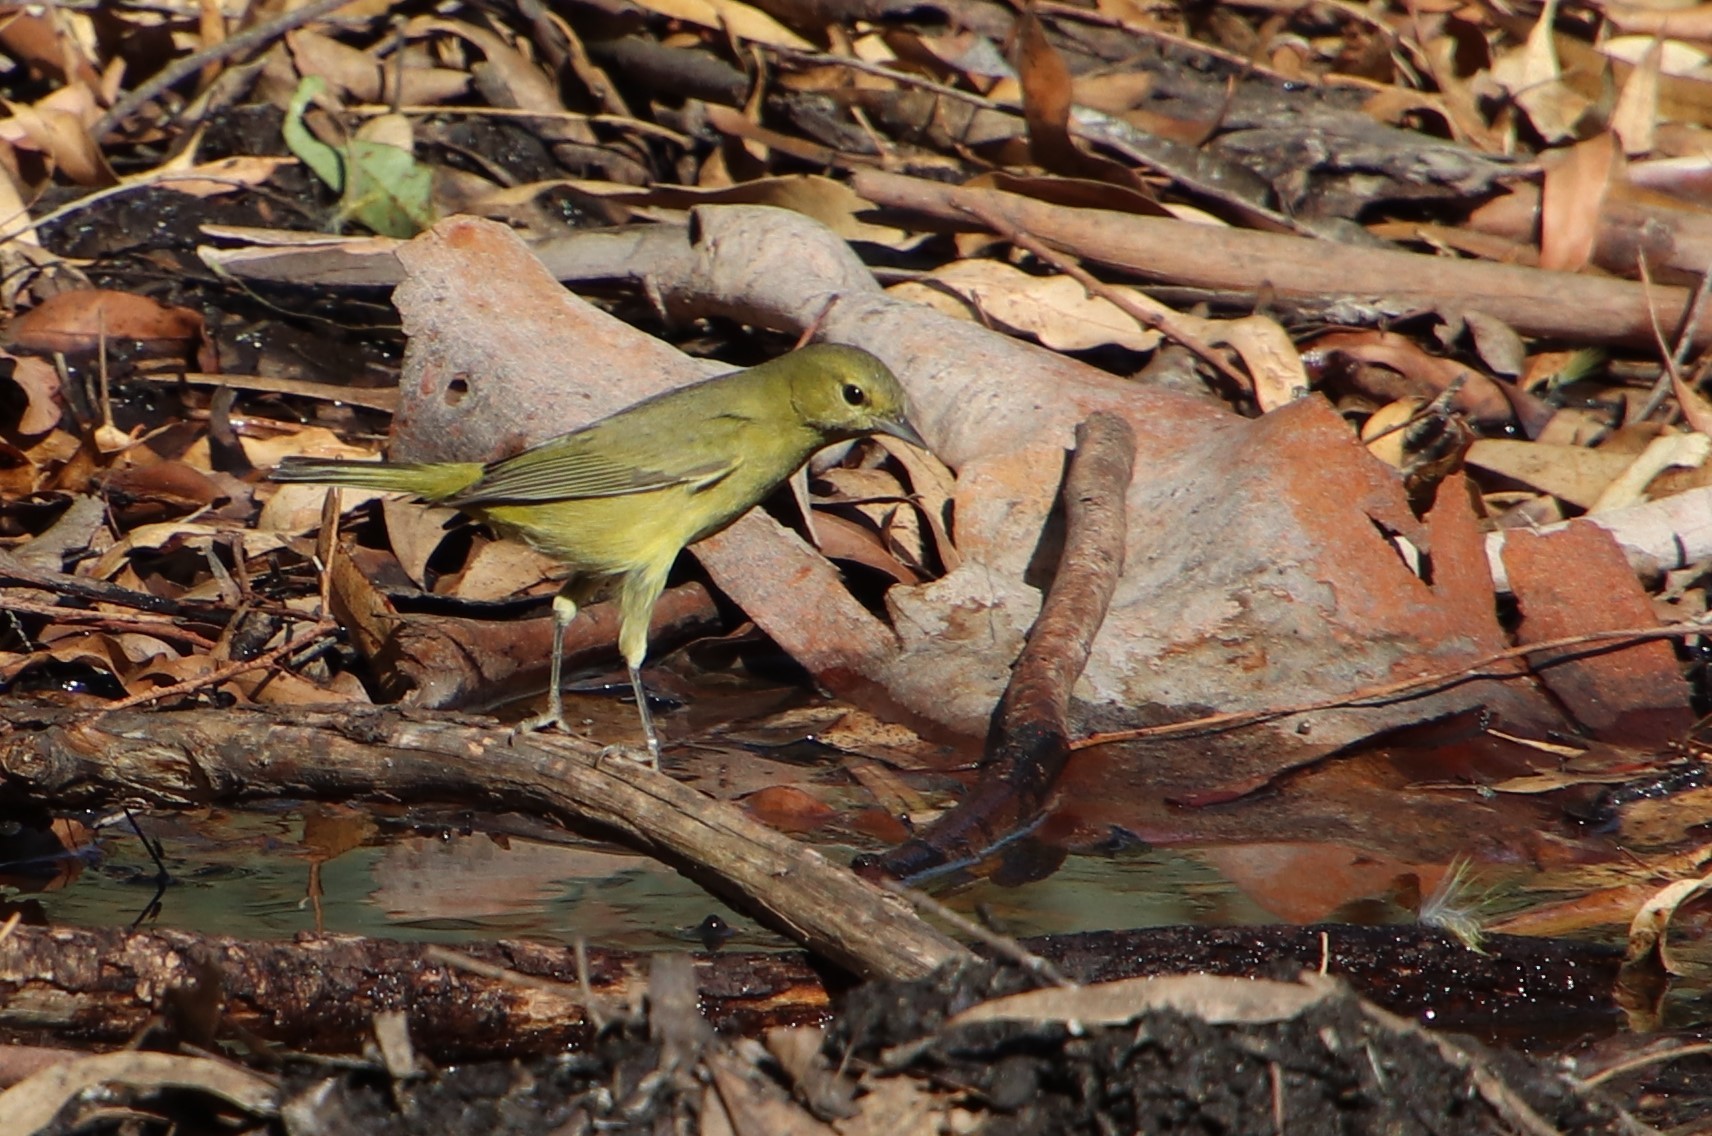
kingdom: Animalia
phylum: Chordata
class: Aves
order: Passeriformes
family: Parulidae
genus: Leiothlypis
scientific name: Leiothlypis celata
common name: Orange-crowned warbler
